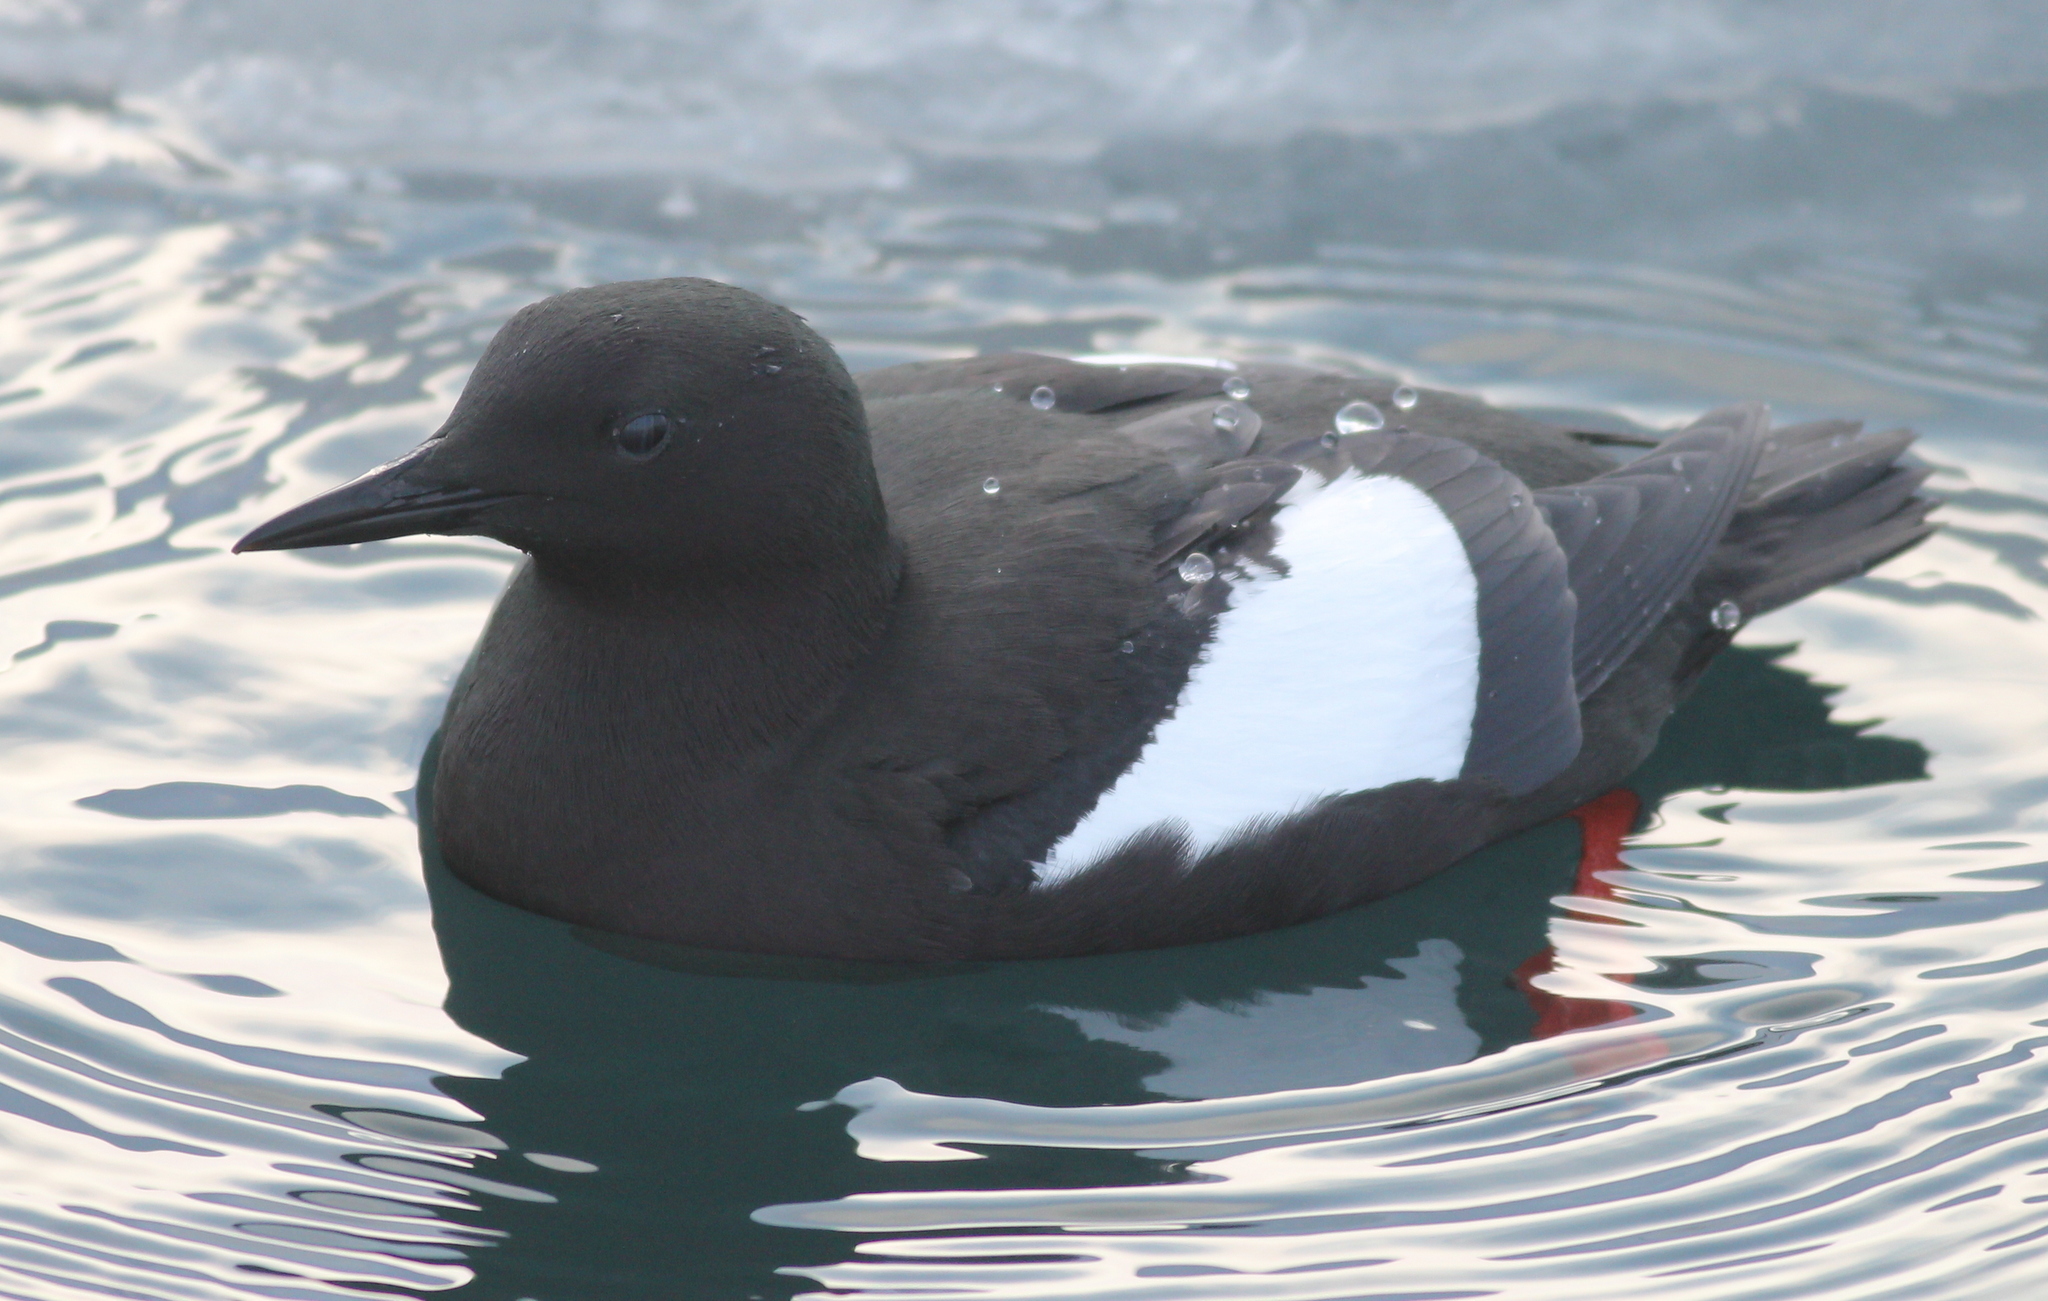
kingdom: Animalia
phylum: Chordata
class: Aves
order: Charadriiformes
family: Alcidae
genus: Cepphus
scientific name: Cepphus grylle
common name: Black guillemot
